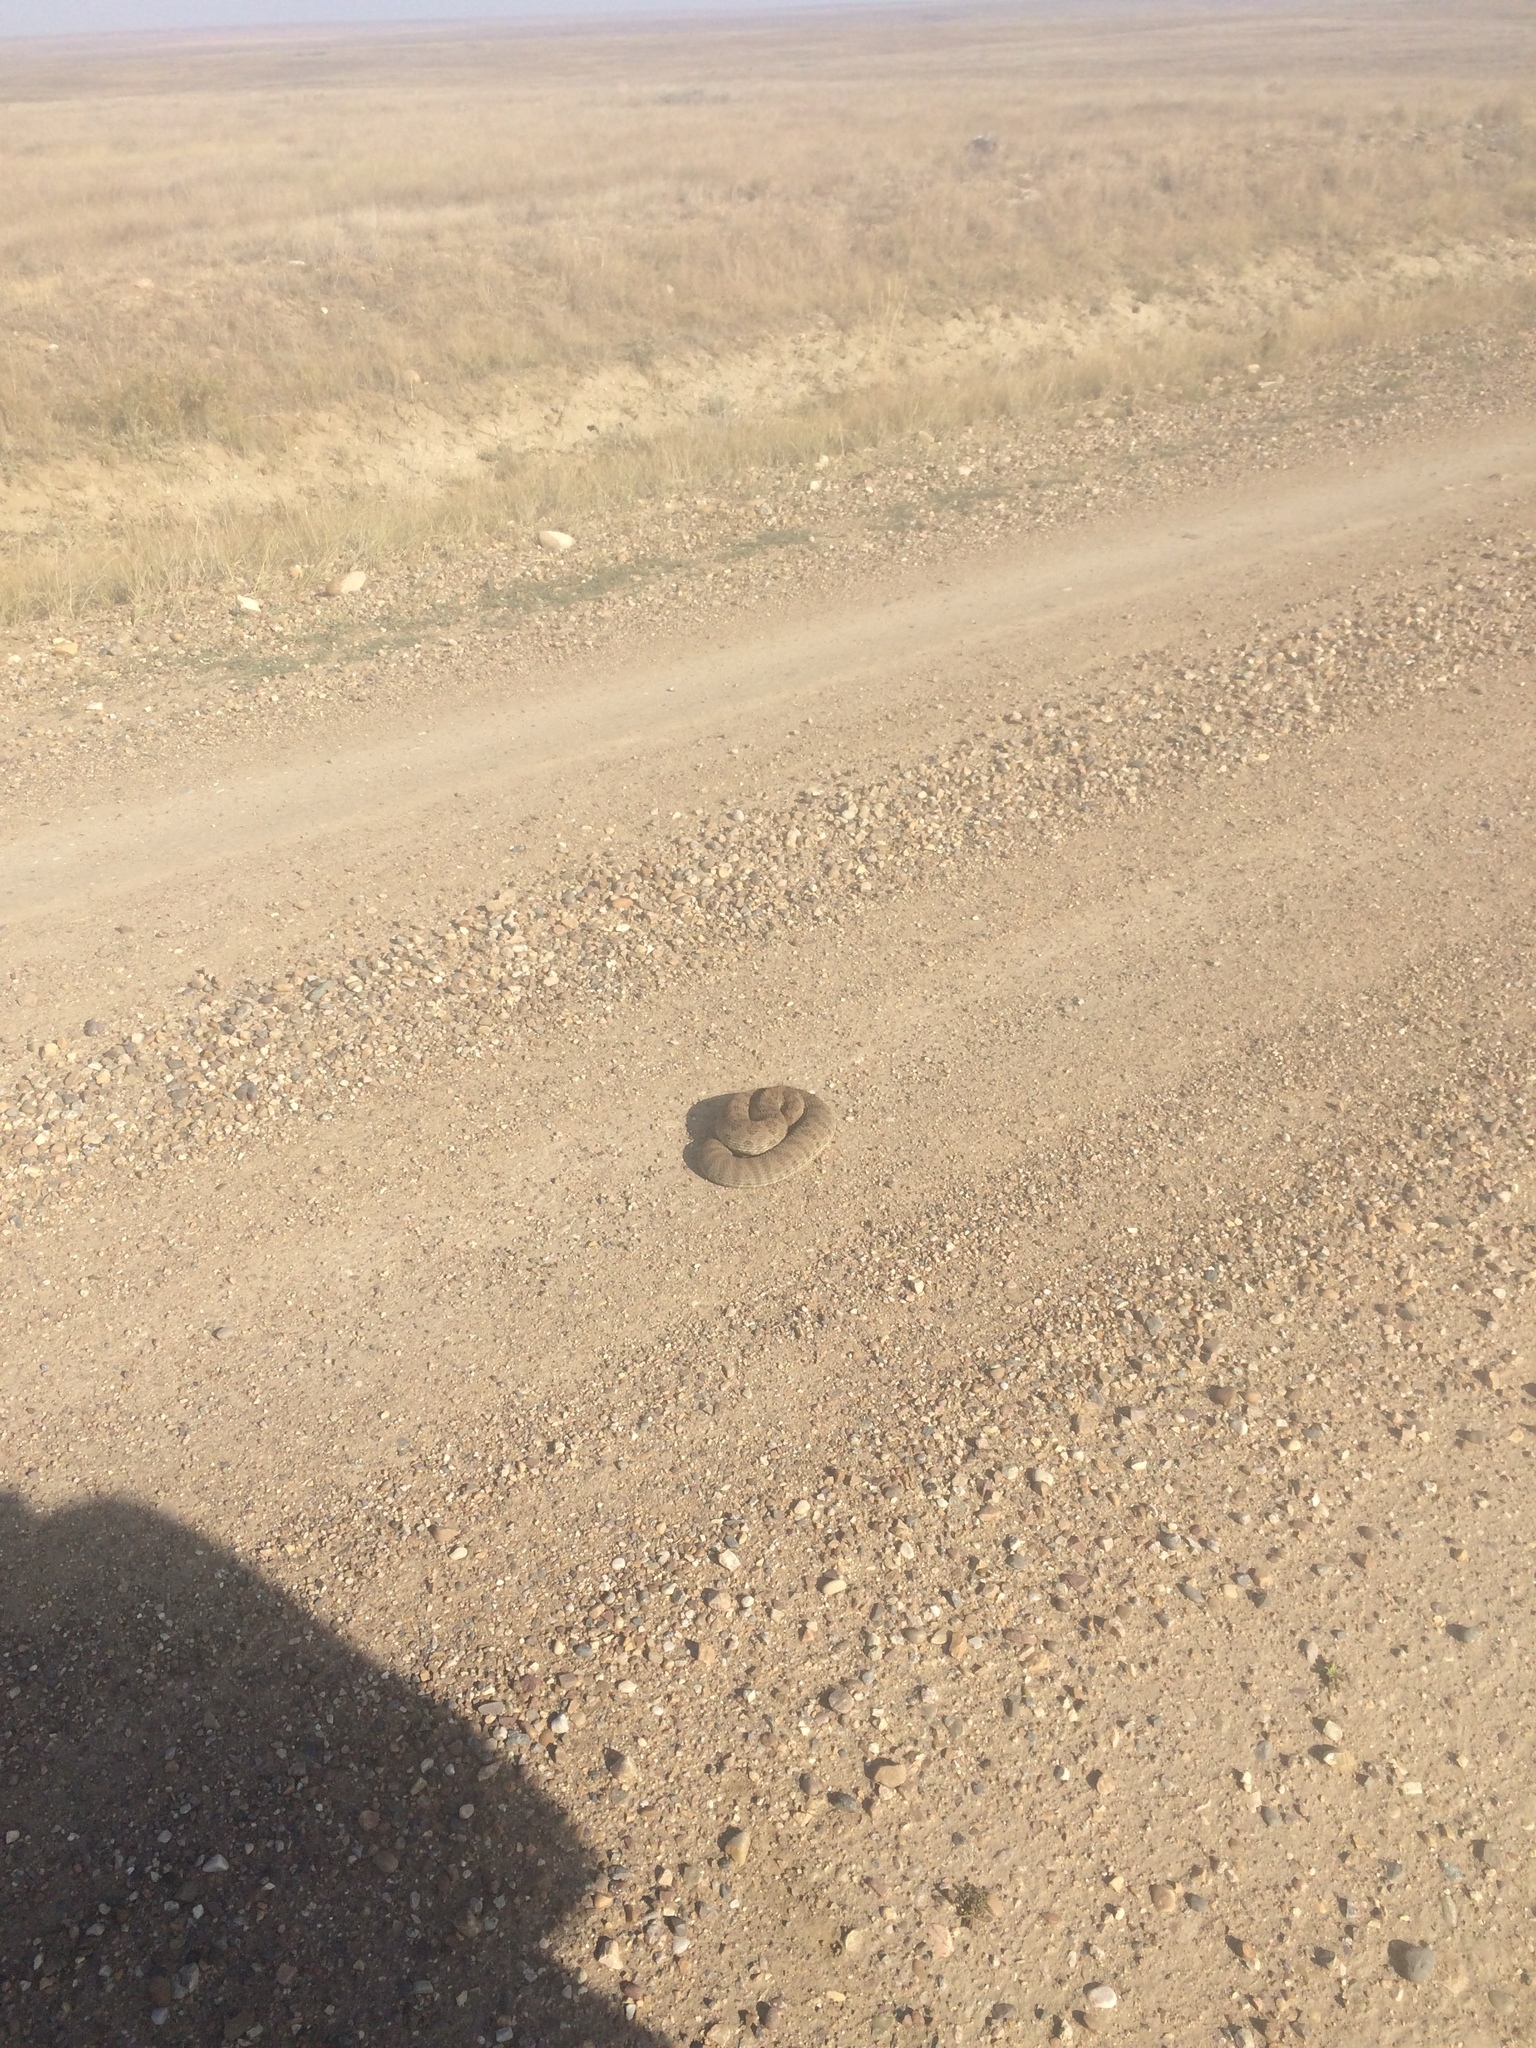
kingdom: Animalia
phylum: Chordata
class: Squamata
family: Viperidae
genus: Crotalus
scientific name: Crotalus viridis
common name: Prairie rattlesnake
